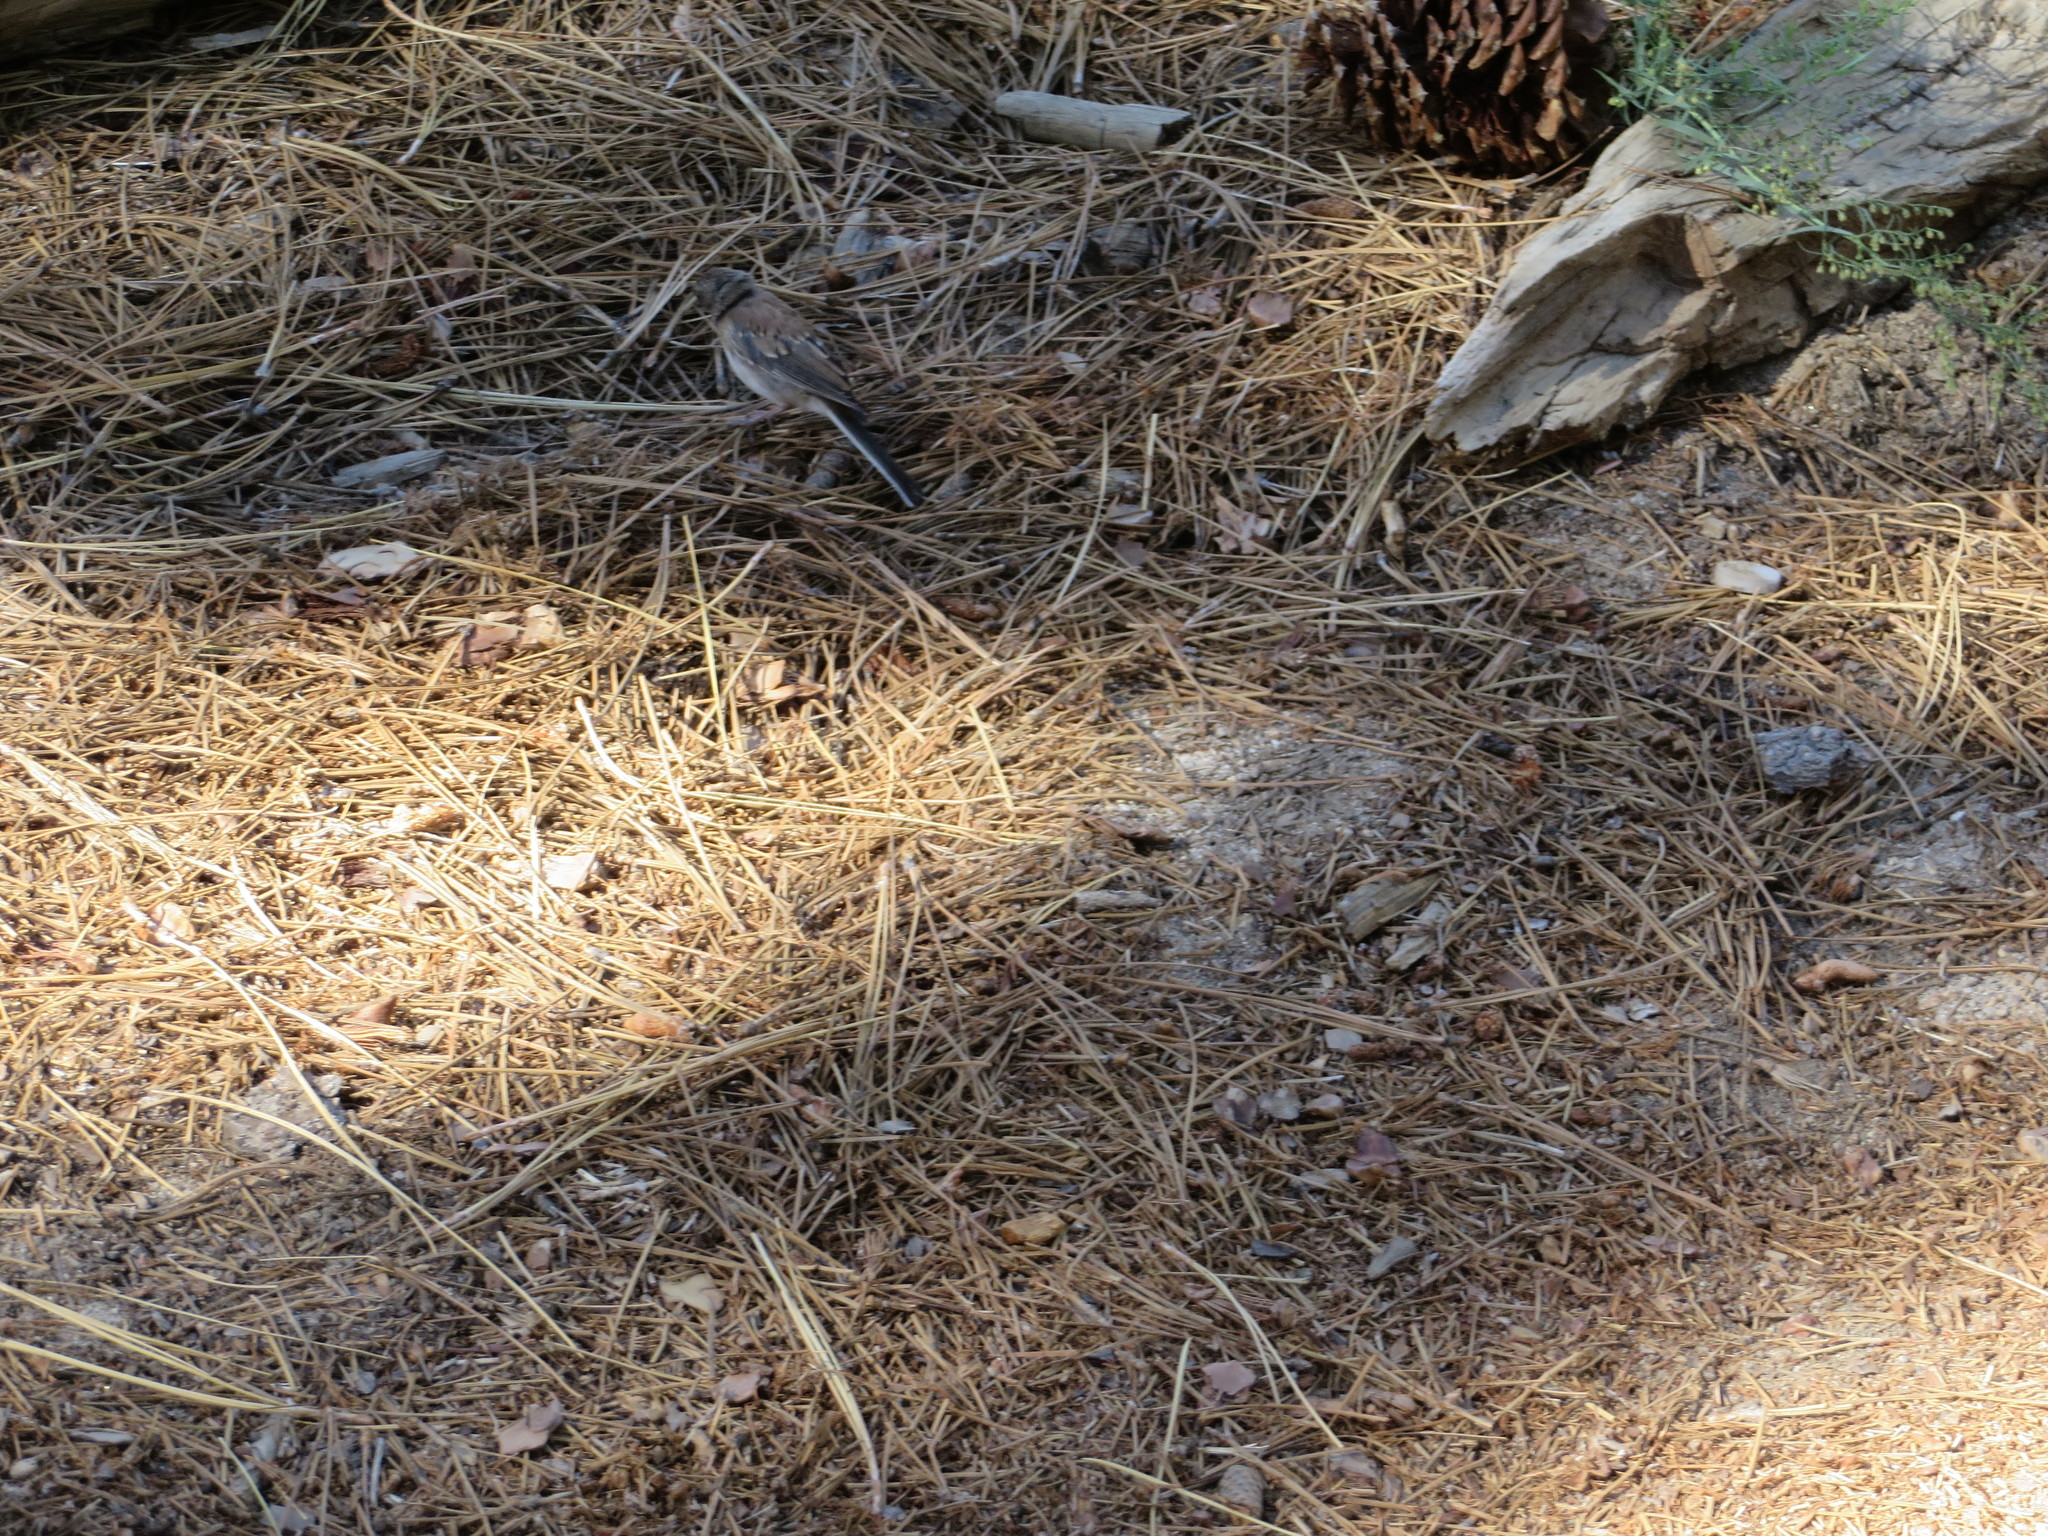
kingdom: Animalia
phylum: Chordata
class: Aves
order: Passeriformes
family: Passerellidae
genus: Junco
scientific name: Junco hyemalis
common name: Dark-eyed junco
